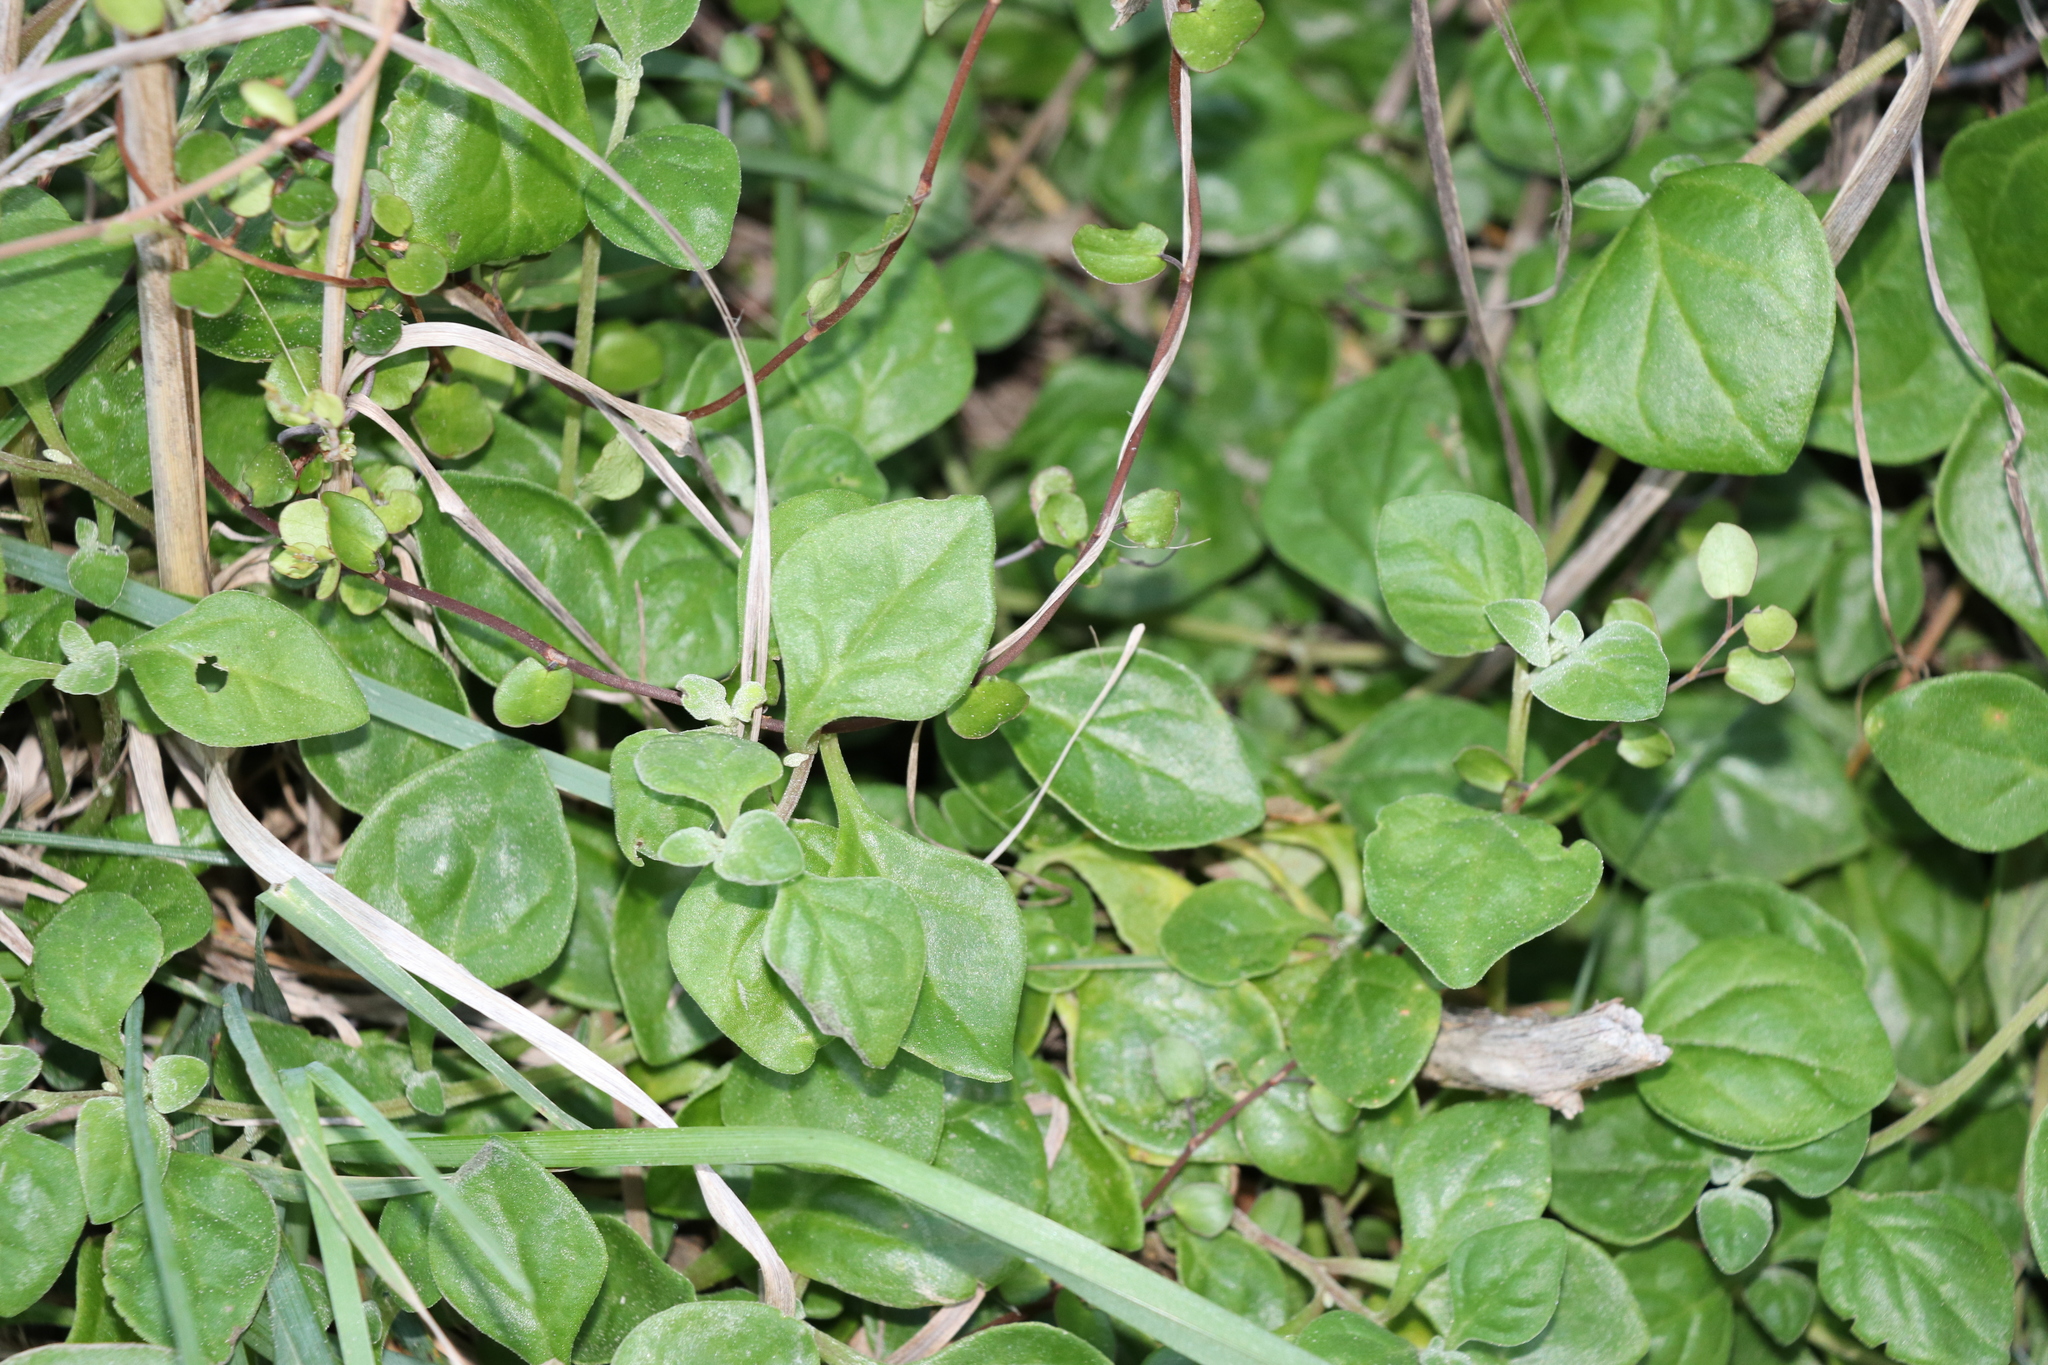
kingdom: Plantae
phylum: Tracheophyta
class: Magnoliopsida
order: Caryophyllales
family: Aizoaceae
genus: Tetragonia
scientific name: Tetragonia implexicoma
